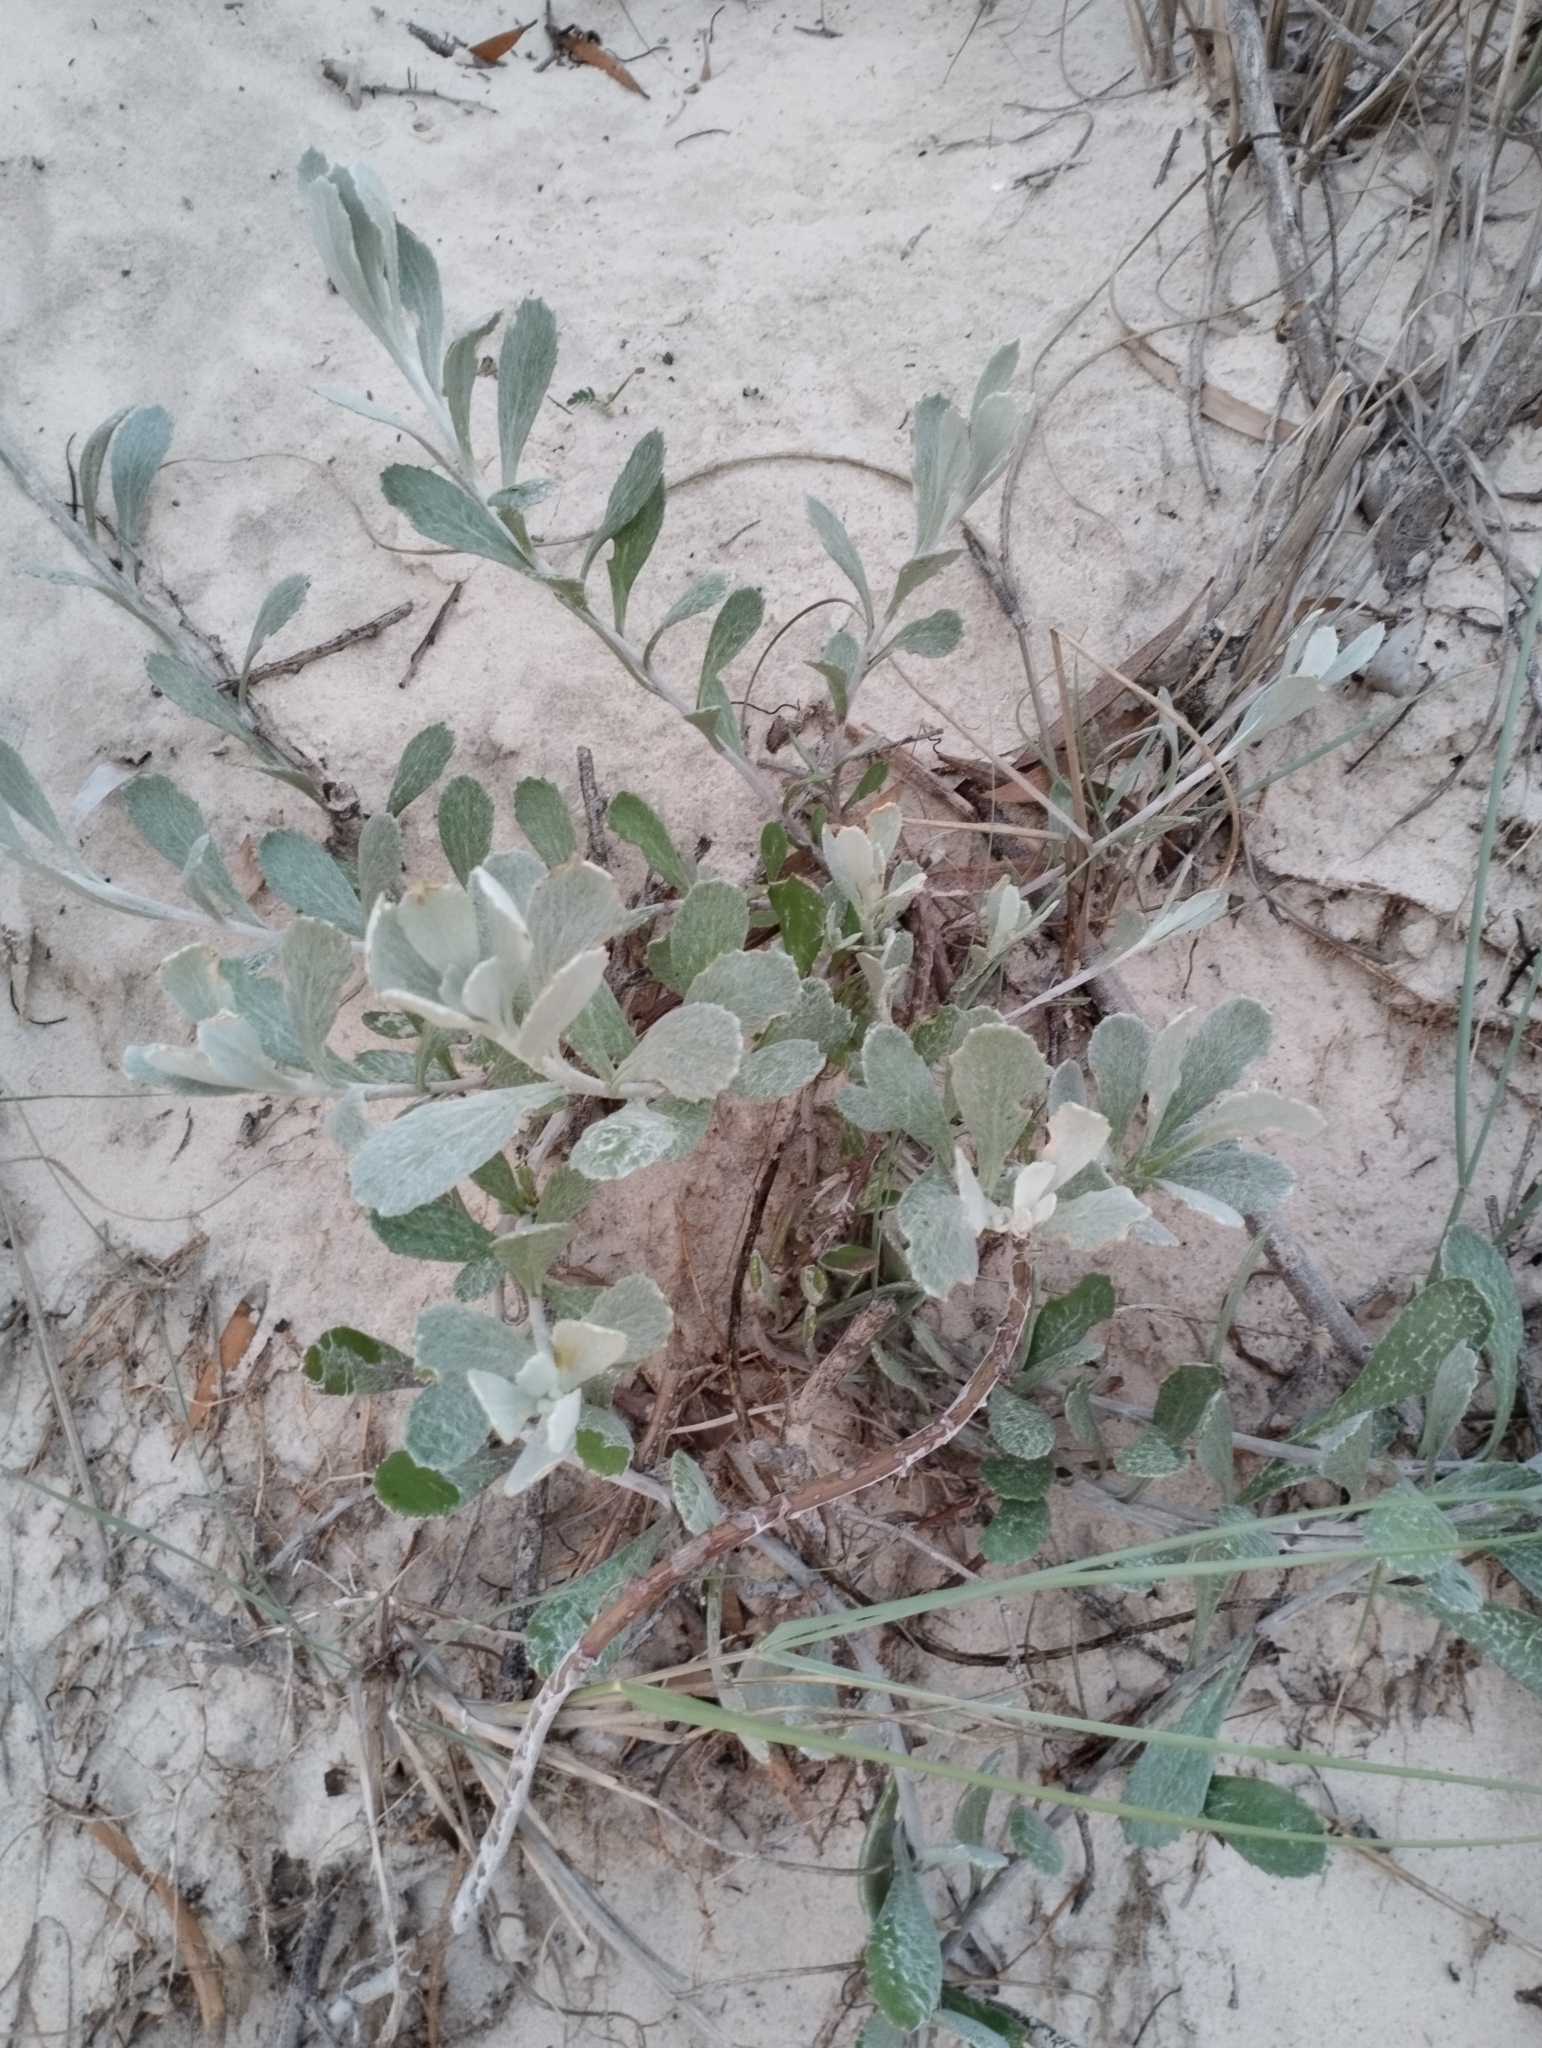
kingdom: Plantae
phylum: Tracheophyta
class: Magnoliopsida
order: Asterales
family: Asteraceae
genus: Senecio
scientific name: Senecio crassiflorus
